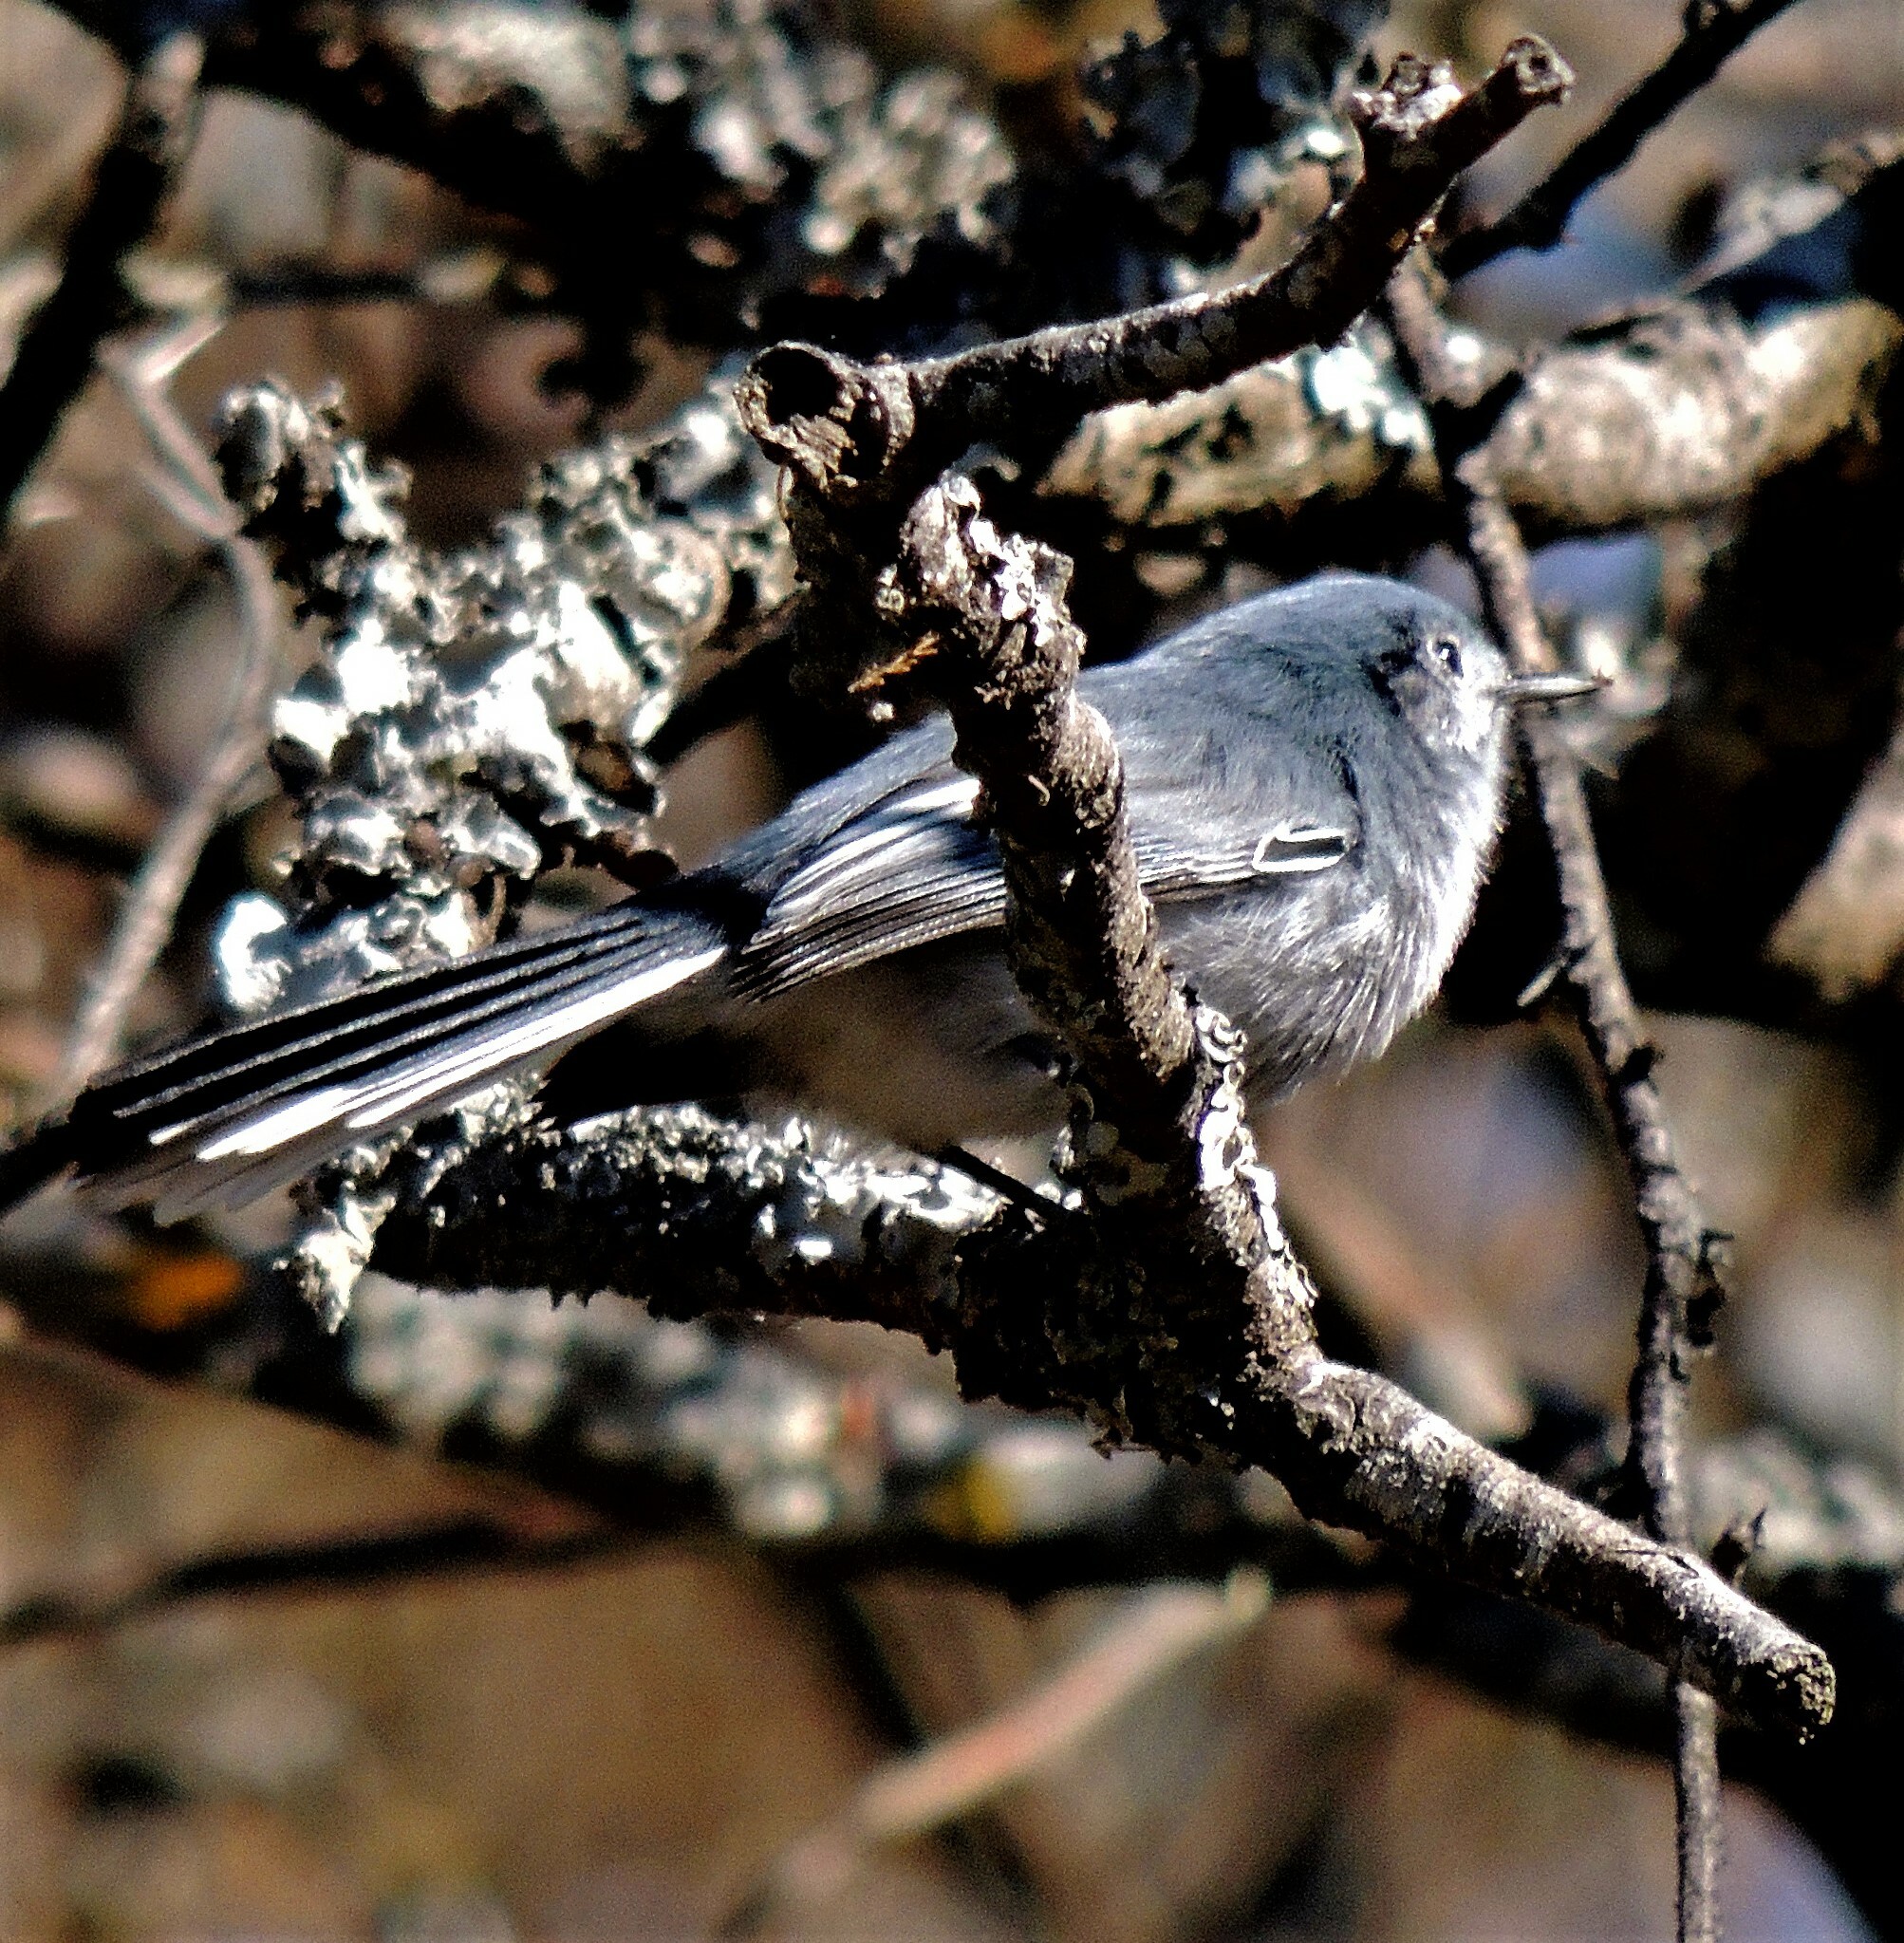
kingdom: Animalia
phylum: Chordata
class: Aves
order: Passeriformes
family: Polioptilidae
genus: Polioptila
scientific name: Polioptila dumicola
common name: Masked gnatcatcher
